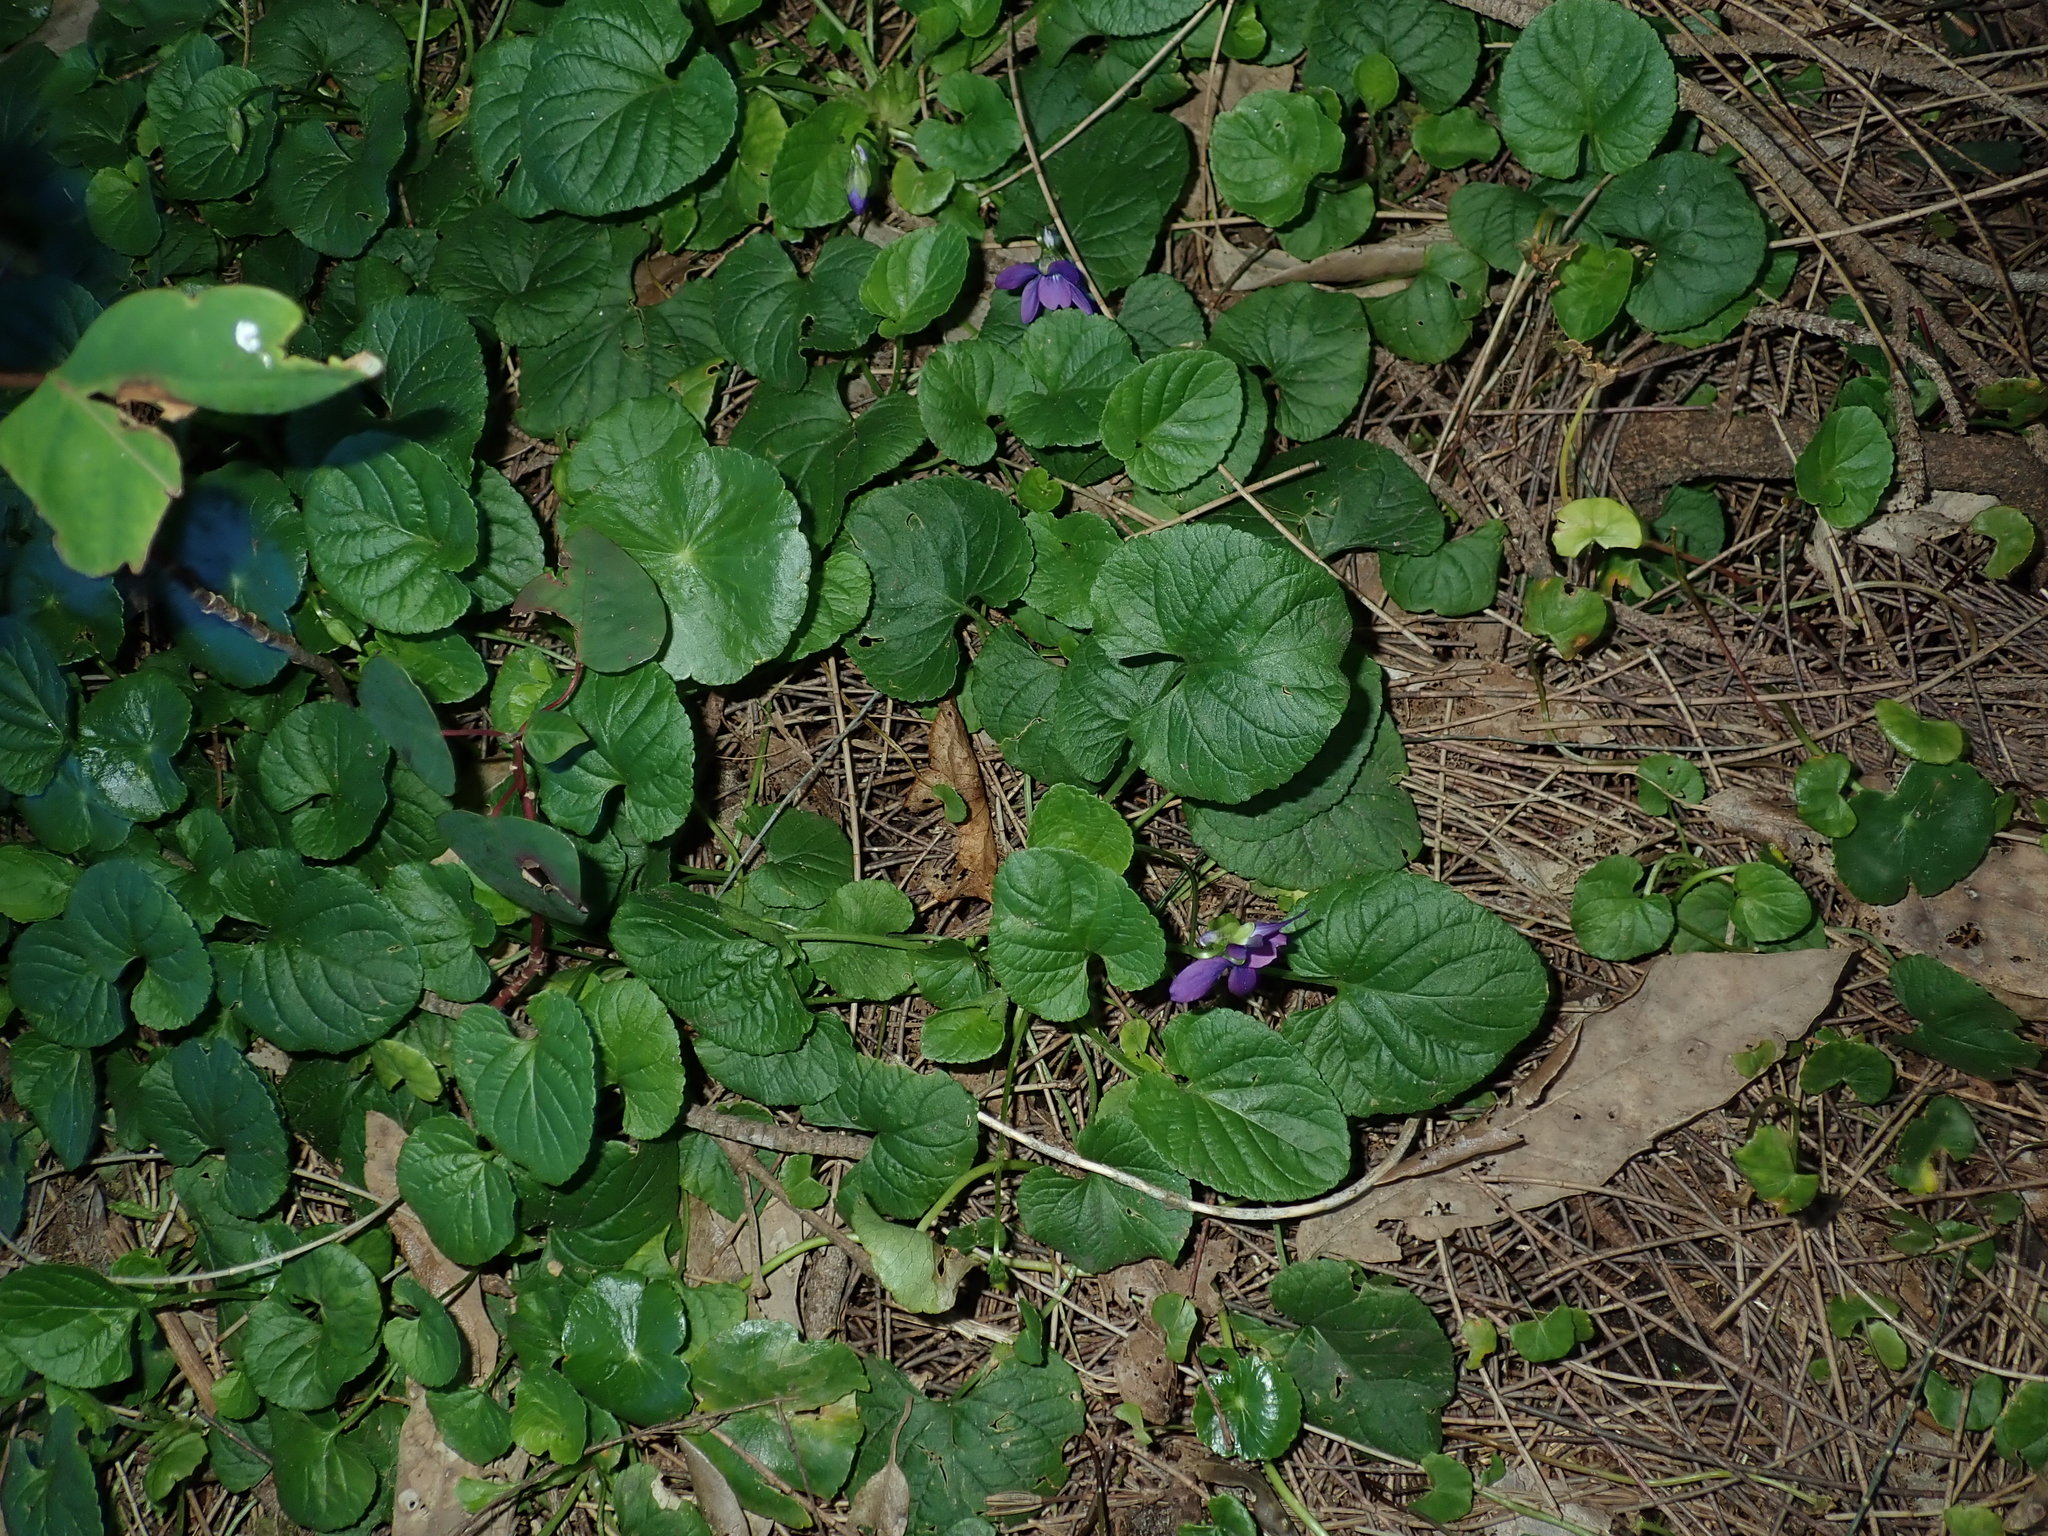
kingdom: Plantae
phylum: Tracheophyta
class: Magnoliopsida
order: Malpighiales
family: Violaceae
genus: Viola
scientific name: Viola odorata
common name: Sweet violet
